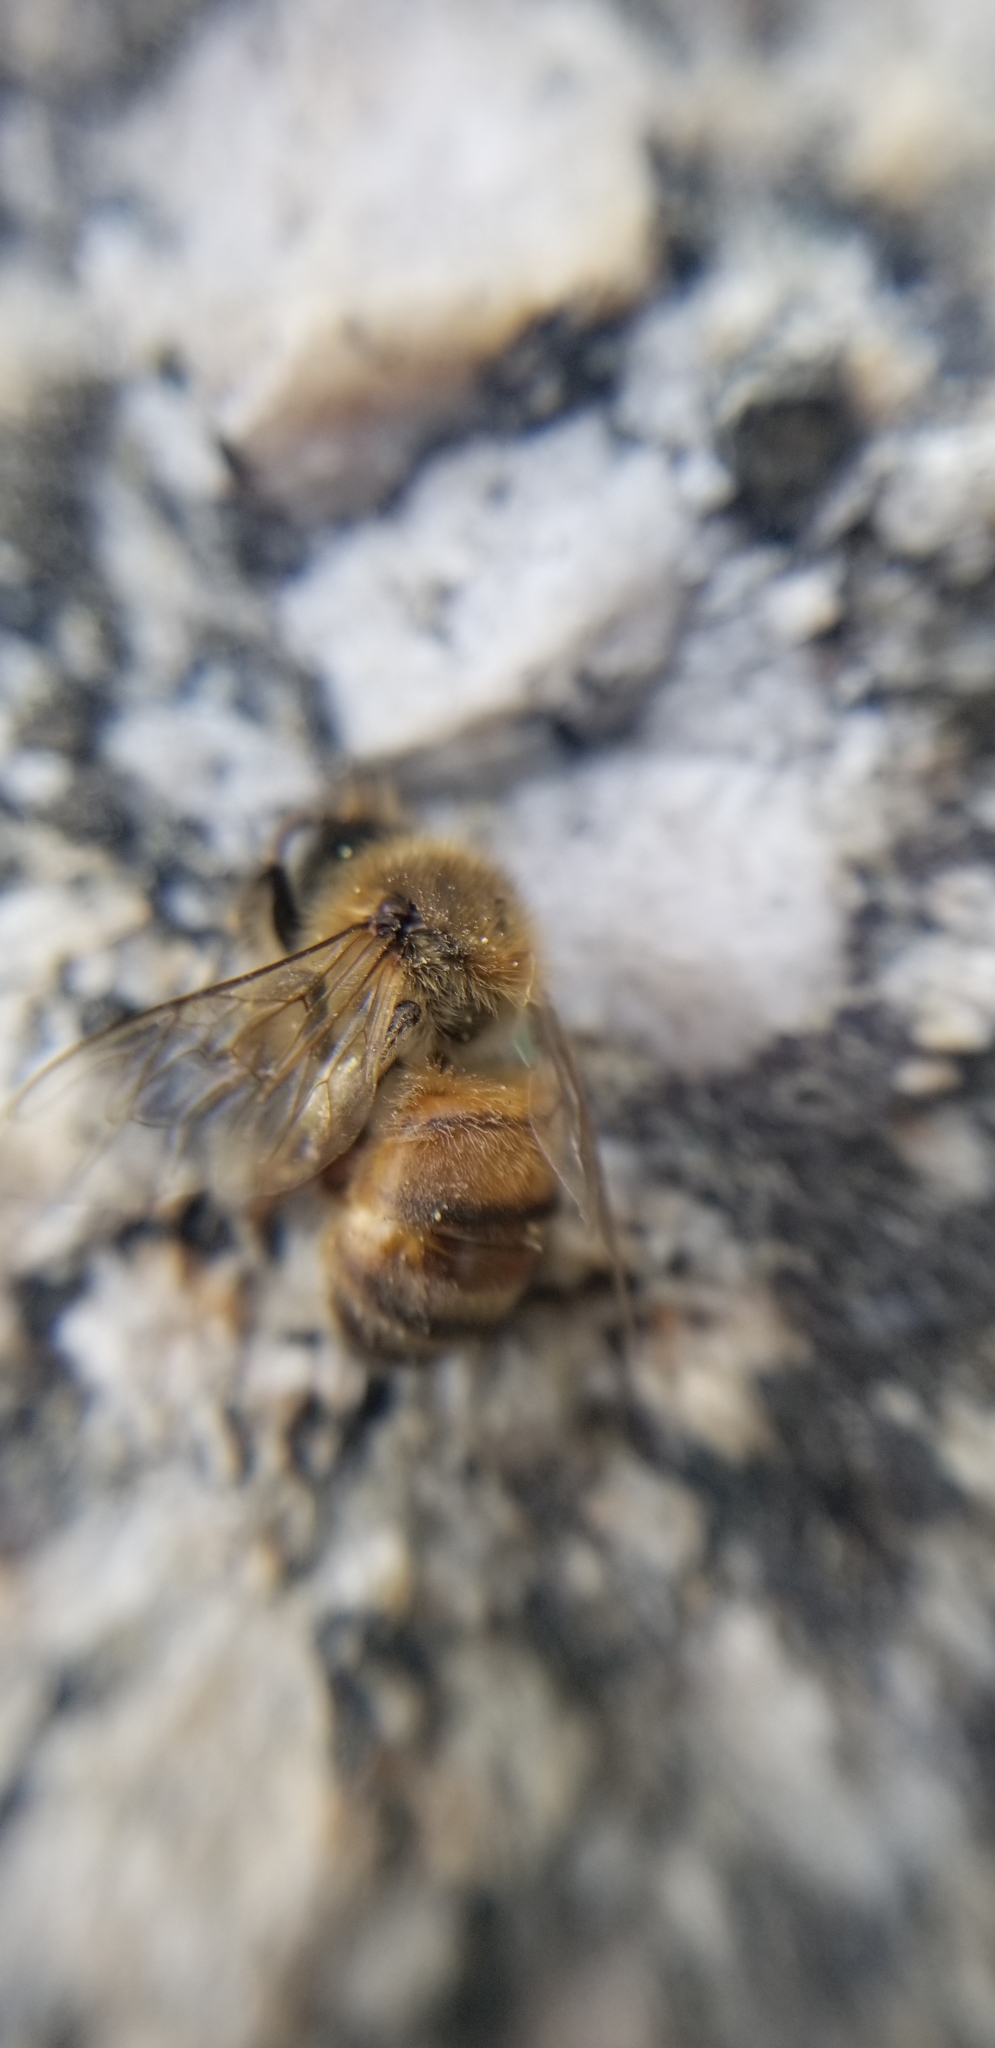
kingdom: Animalia
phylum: Arthropoda
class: Insecta
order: Hymenoptera
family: Apidae
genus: Apis
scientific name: Apis mellifera
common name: Honey bee
